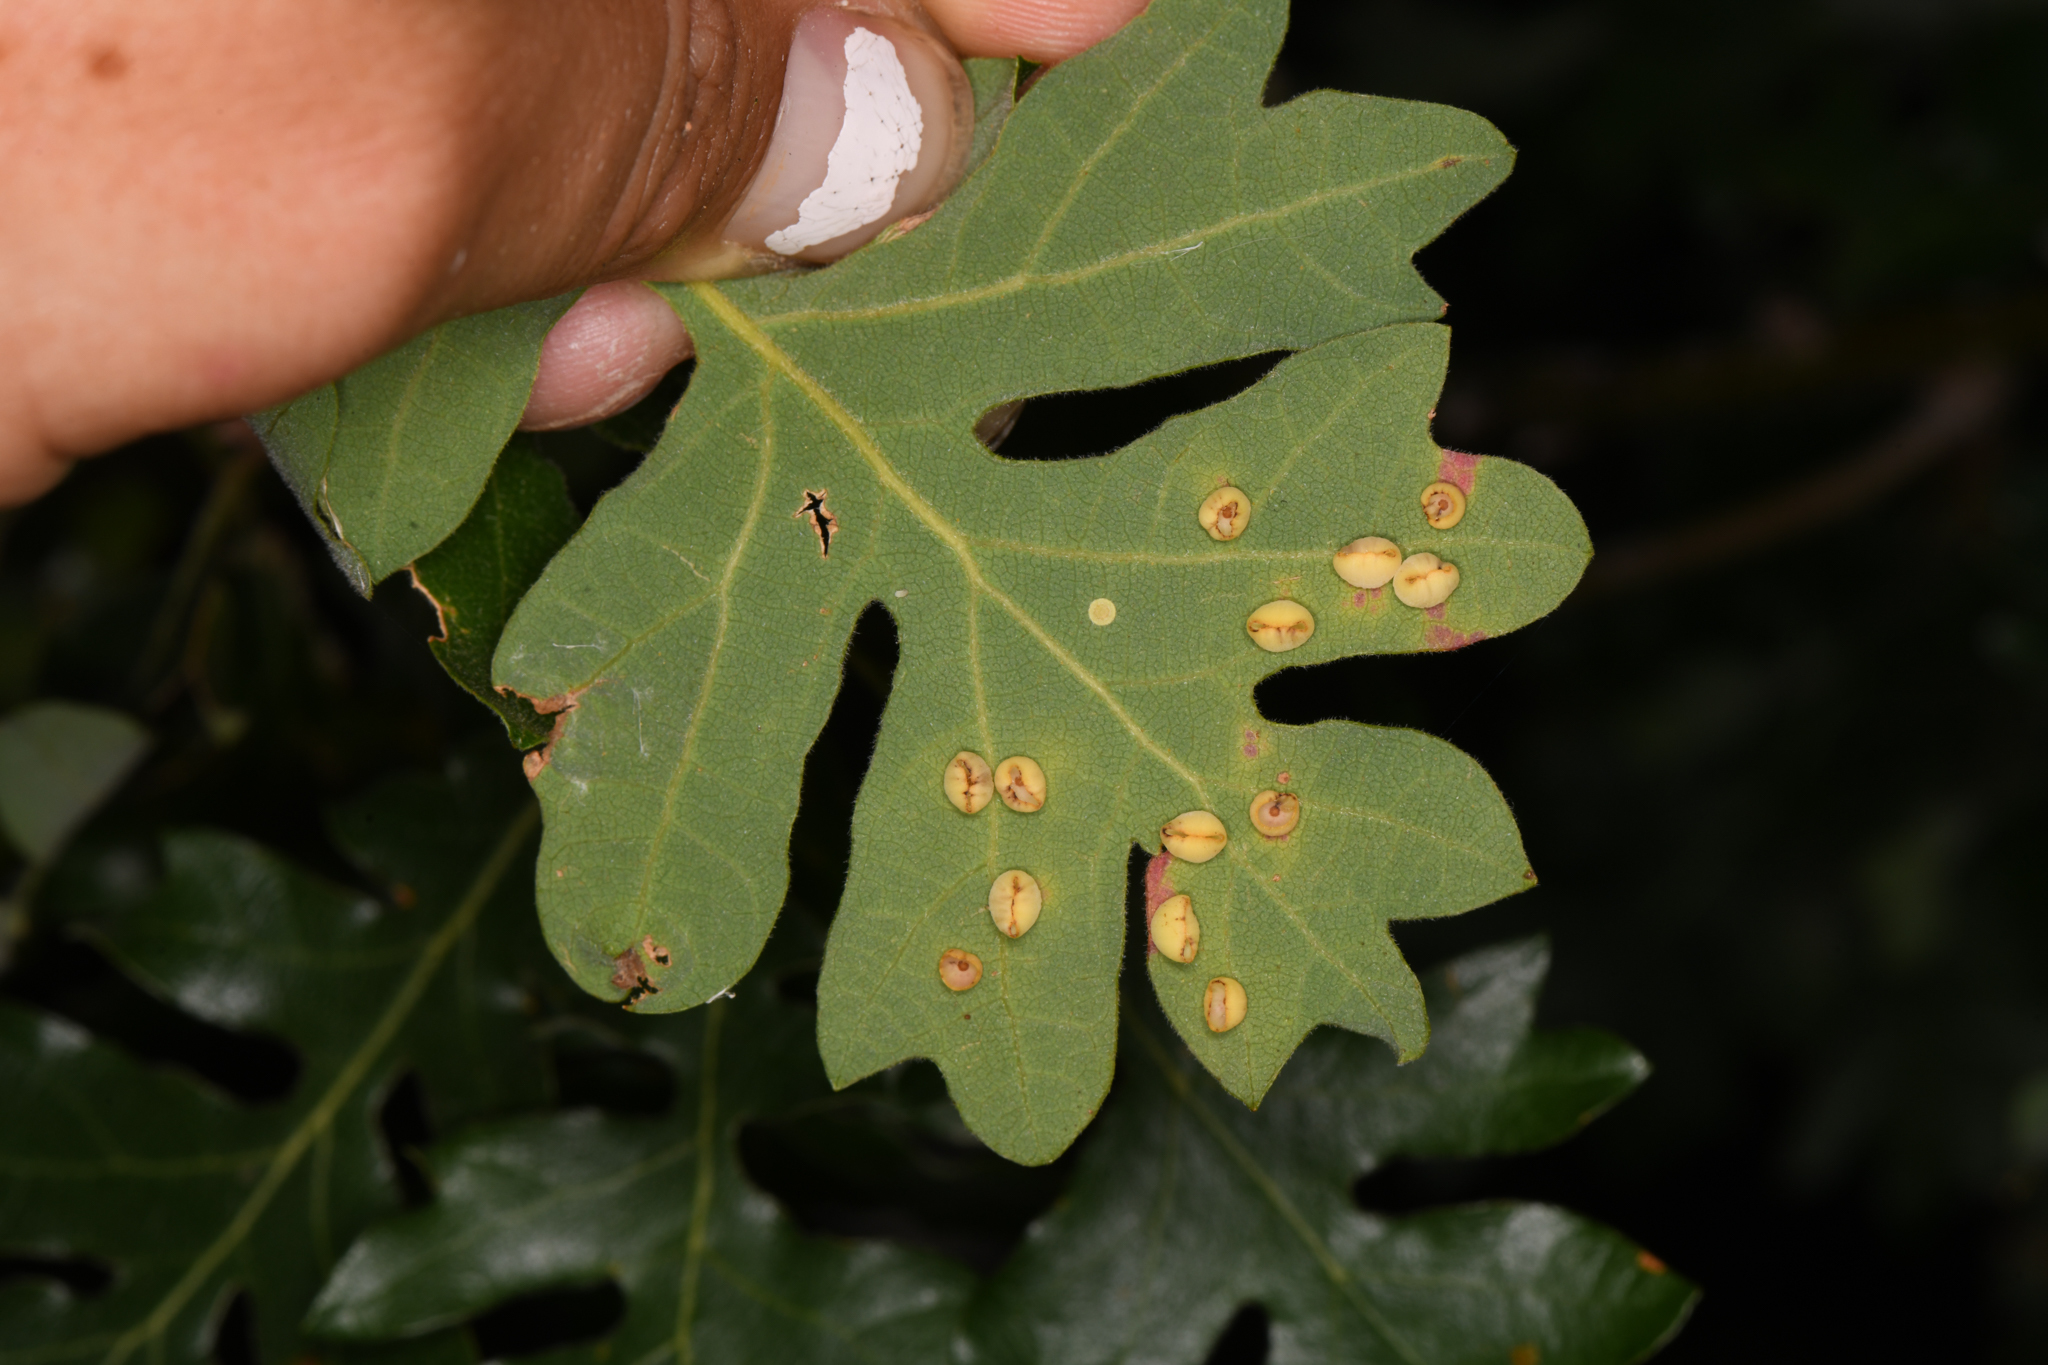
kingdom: Animalia
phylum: Arthropoda
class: Insecta
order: Hymenoptera
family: Cynipidae
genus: Andricus
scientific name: Andricus
